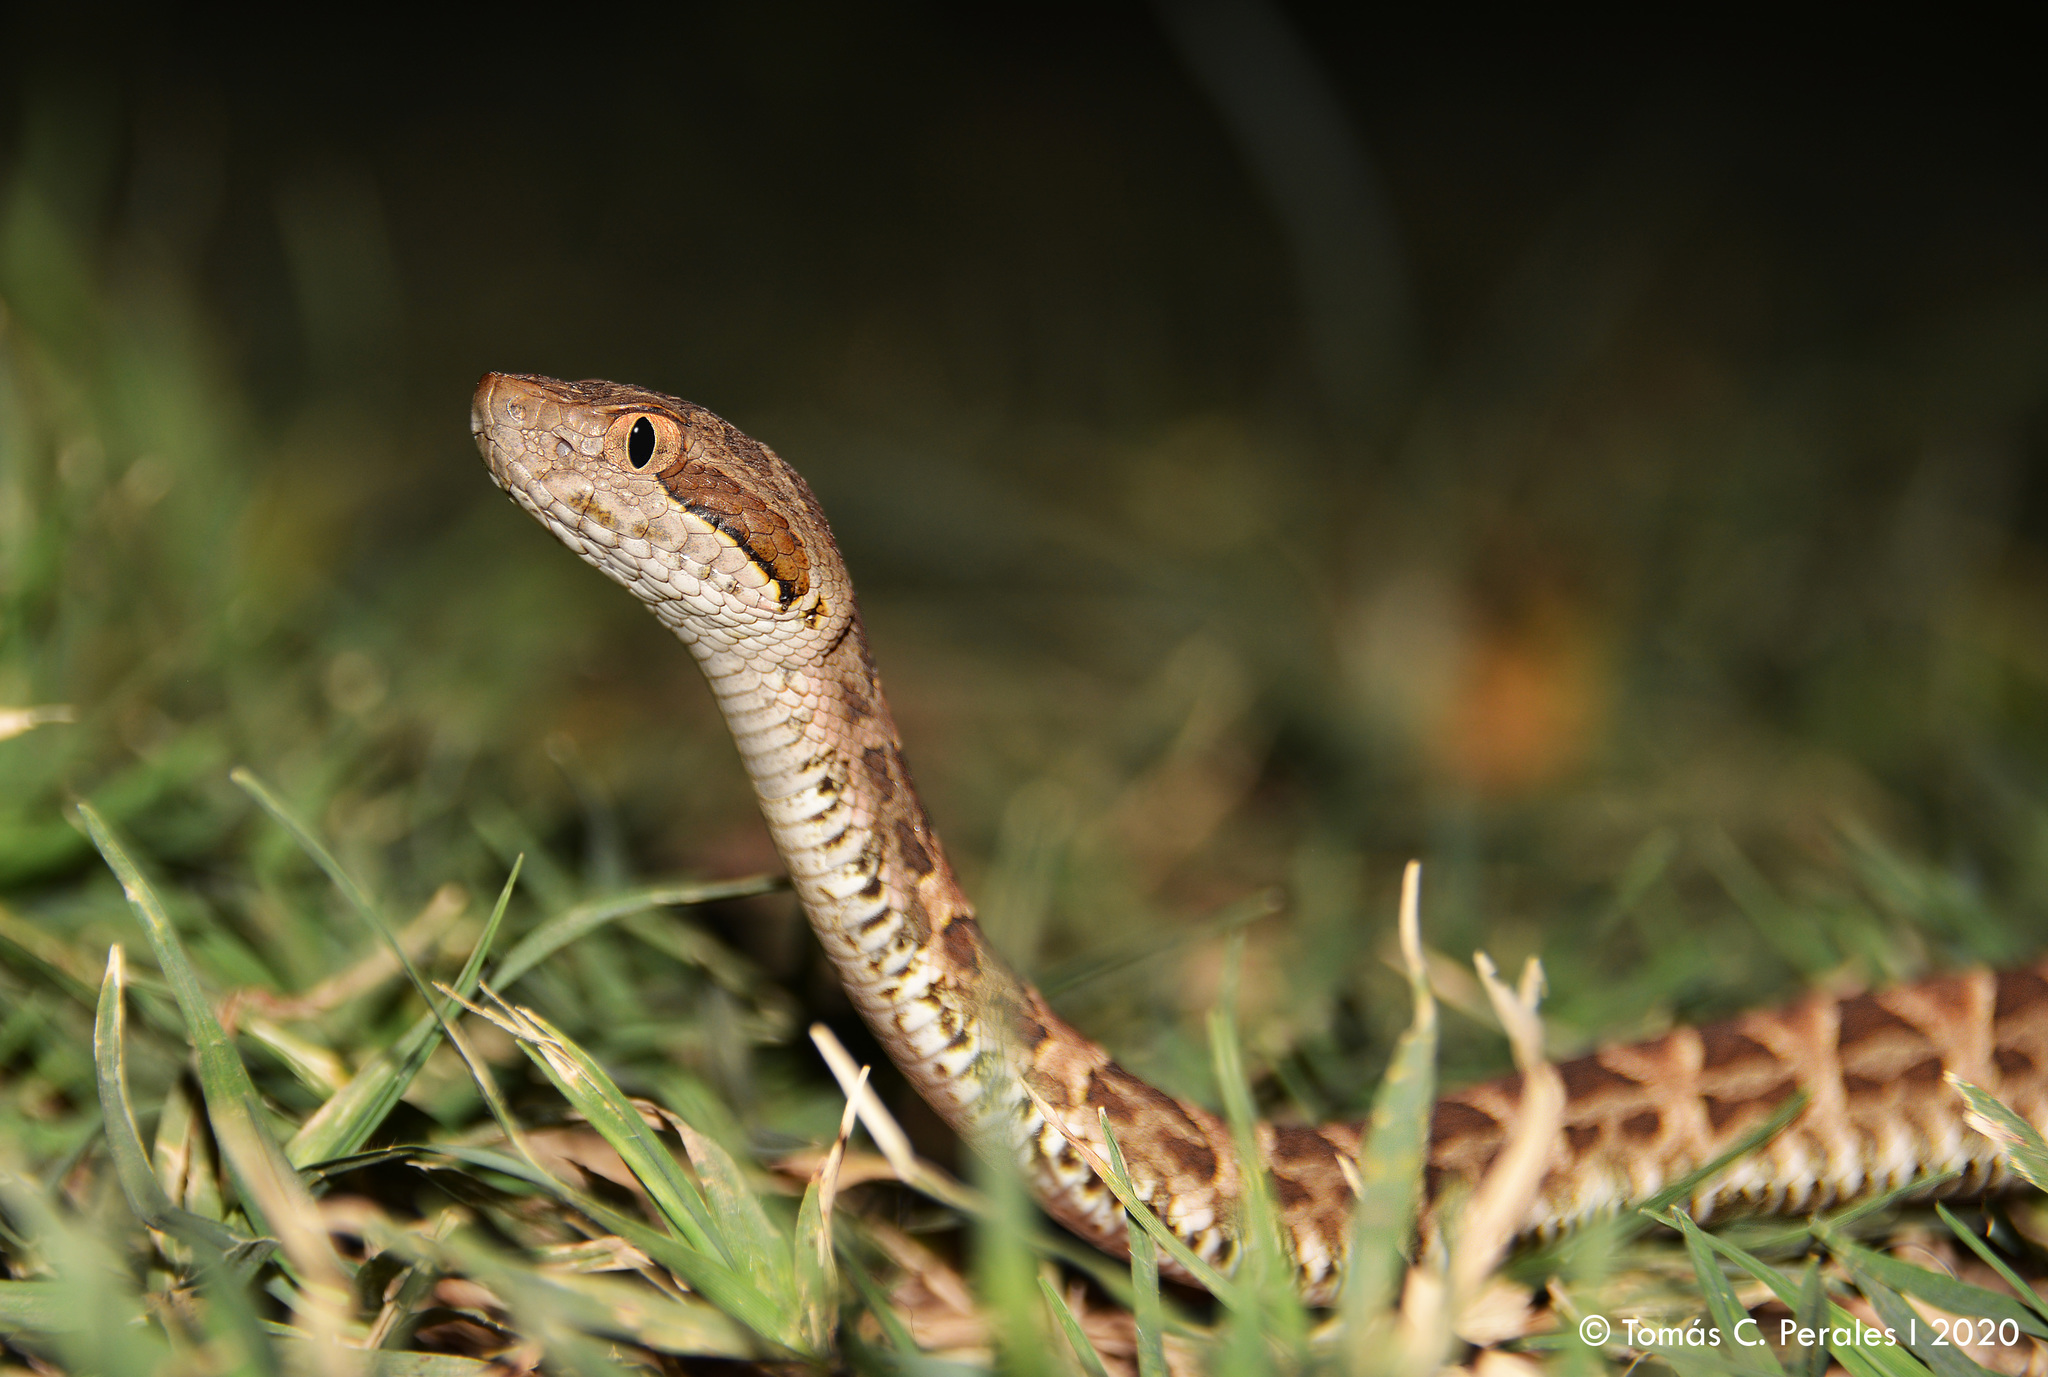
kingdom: Animalia
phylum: Chordata
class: Squamata
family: Viperidae
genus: Bothrops
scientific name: Bothrops diporus
